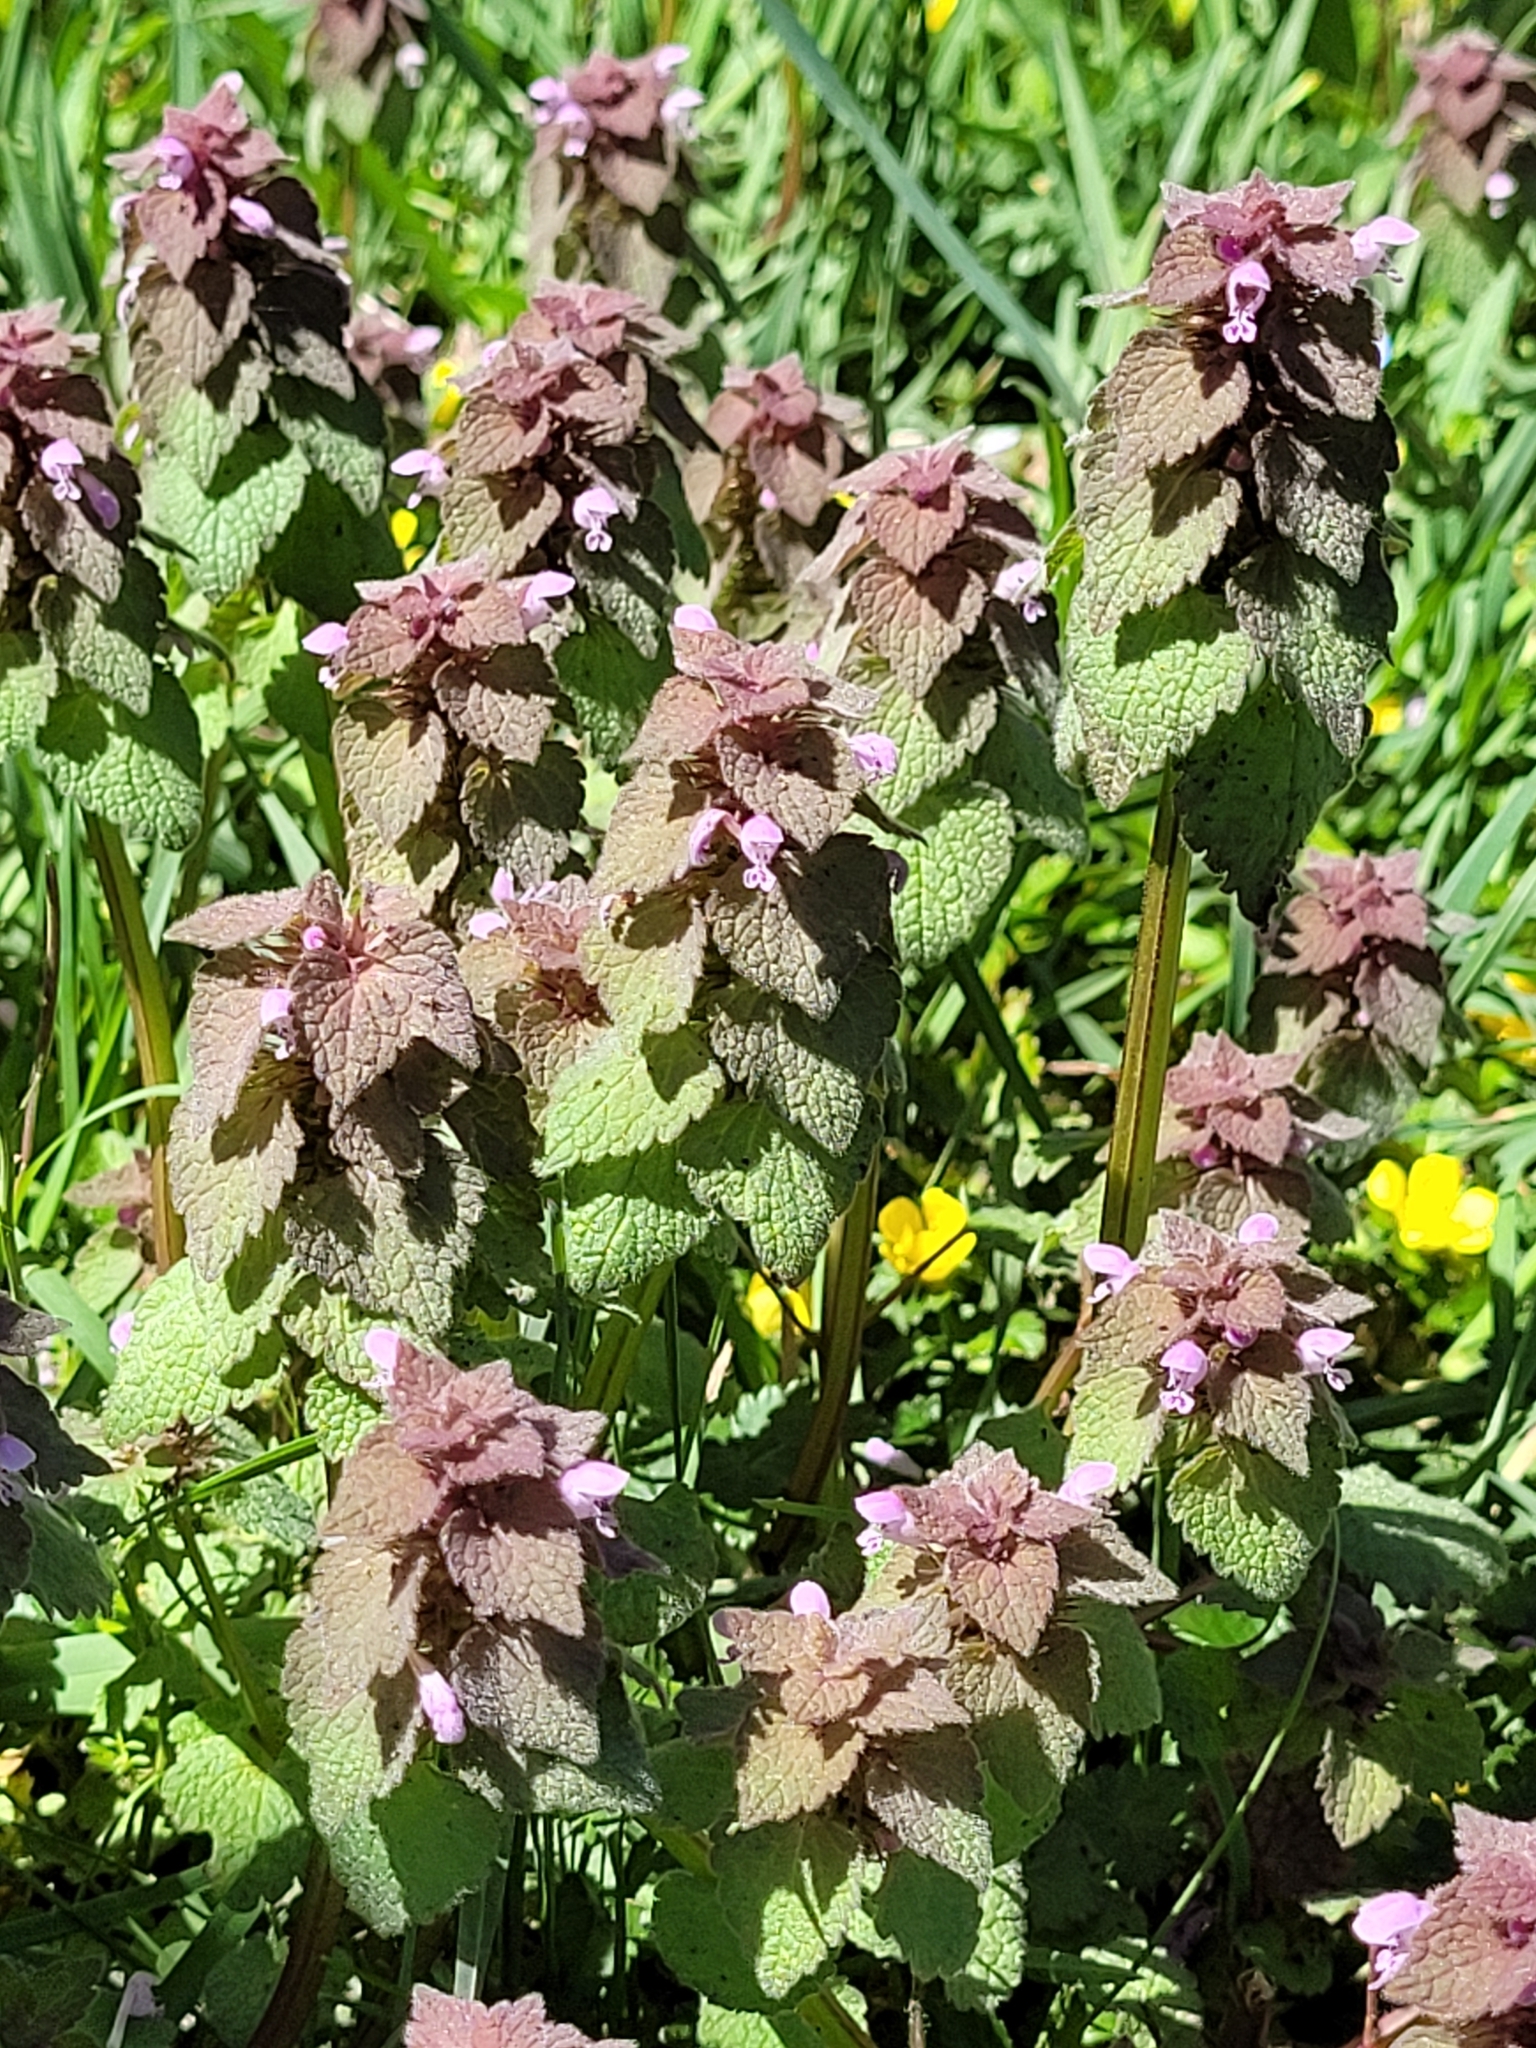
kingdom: Plantae
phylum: Tracheophyta
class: Magnoliopsida
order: Lamiales
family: Lamiaceae
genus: Lamium
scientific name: Lamium purpureum
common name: Red dead-nettle
